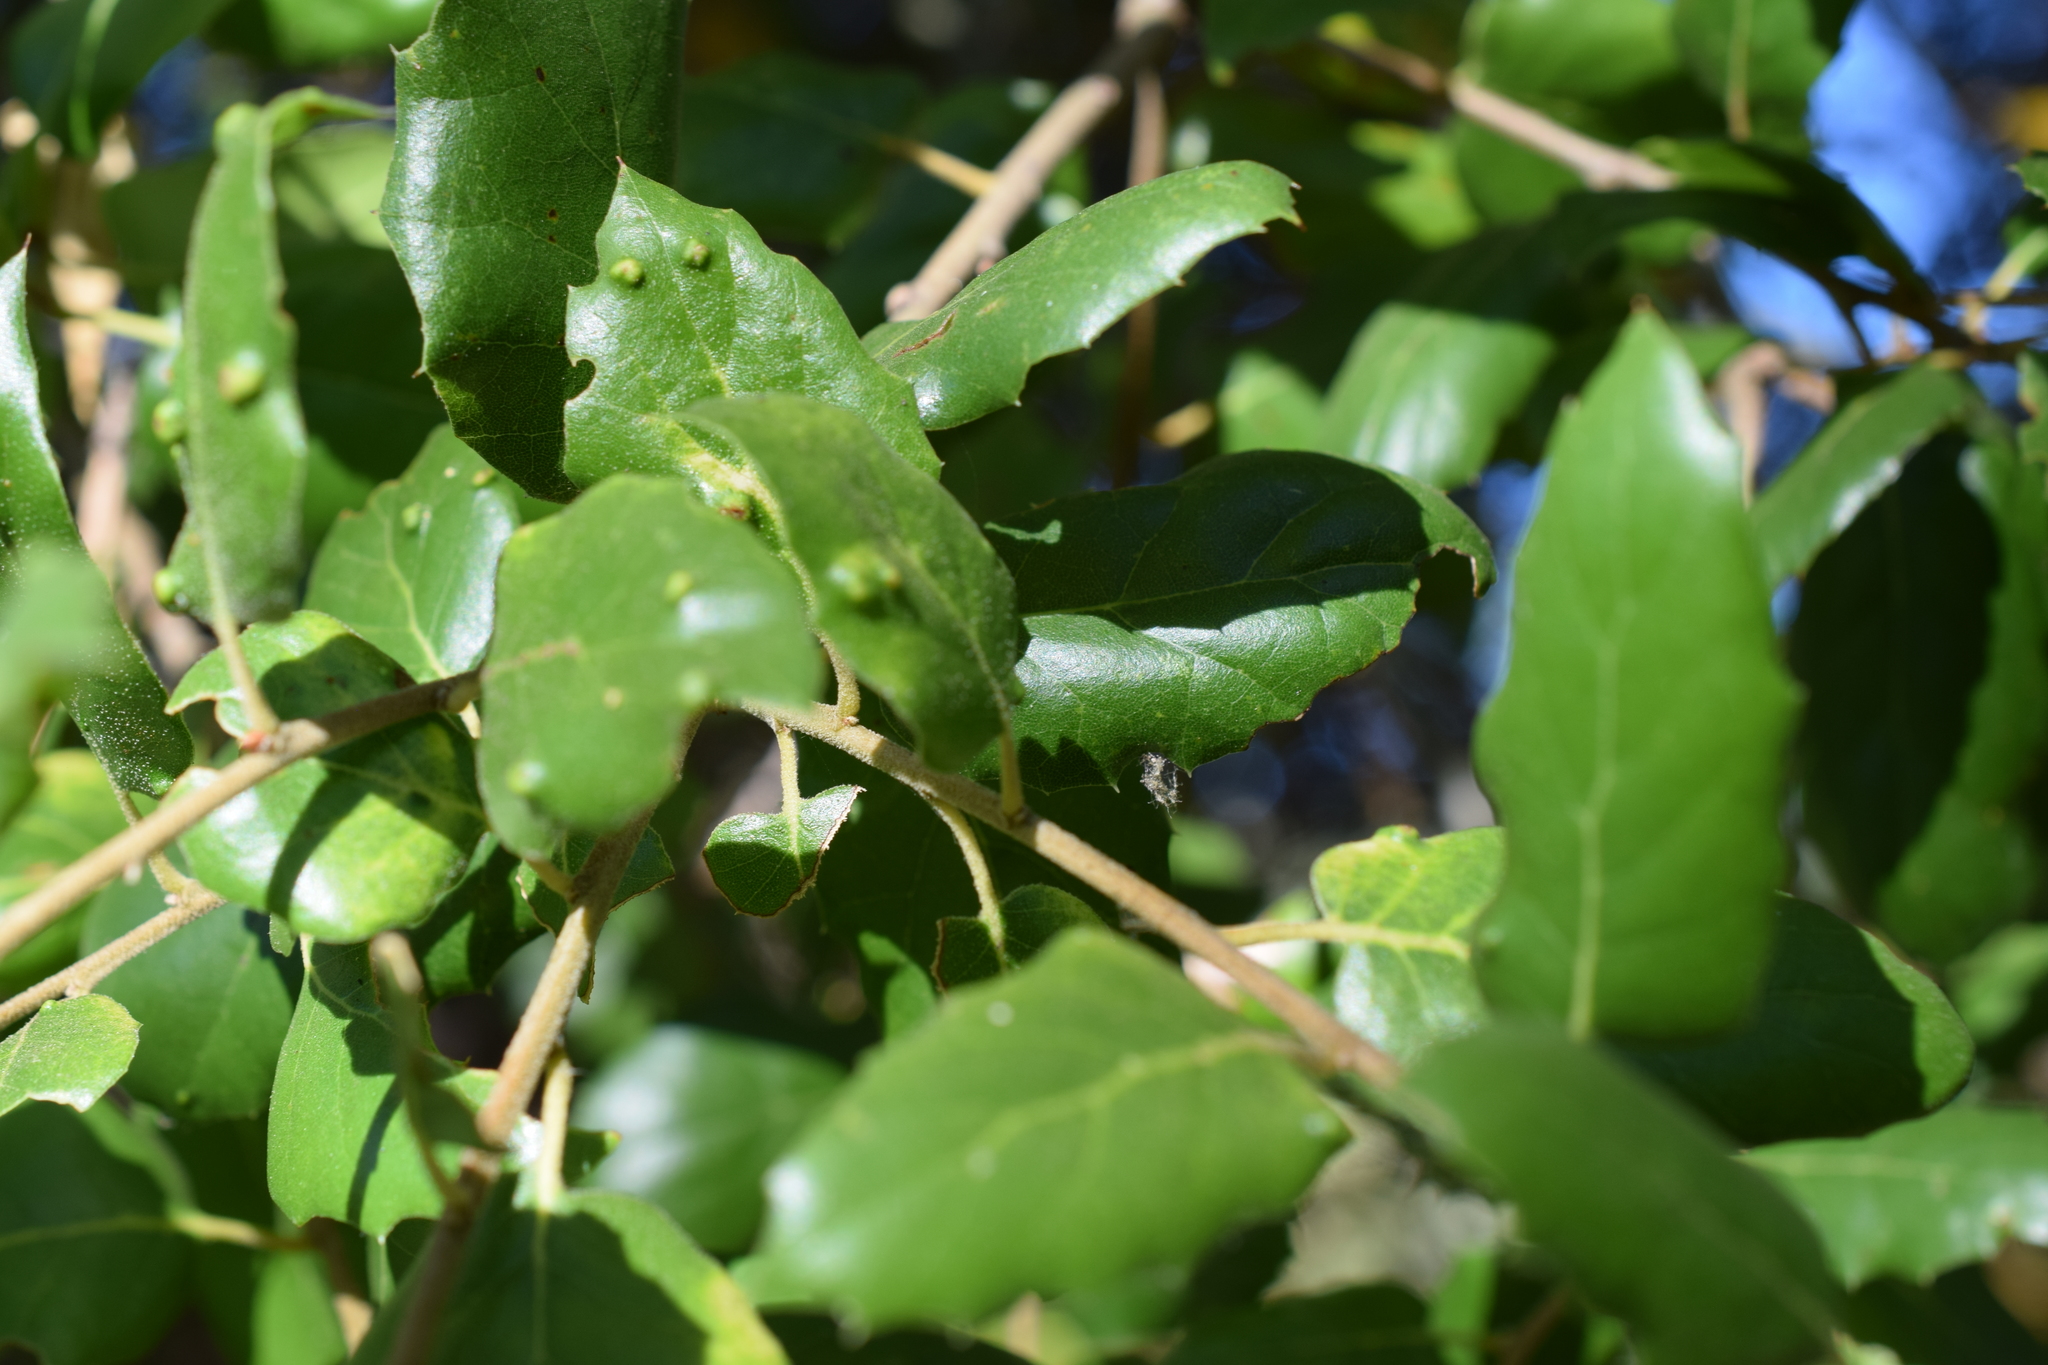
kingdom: Animalia
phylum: Arthropoda
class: Arachnida
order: Trombidiformes
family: Eriophyidae
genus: Aceria
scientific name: Aceria
